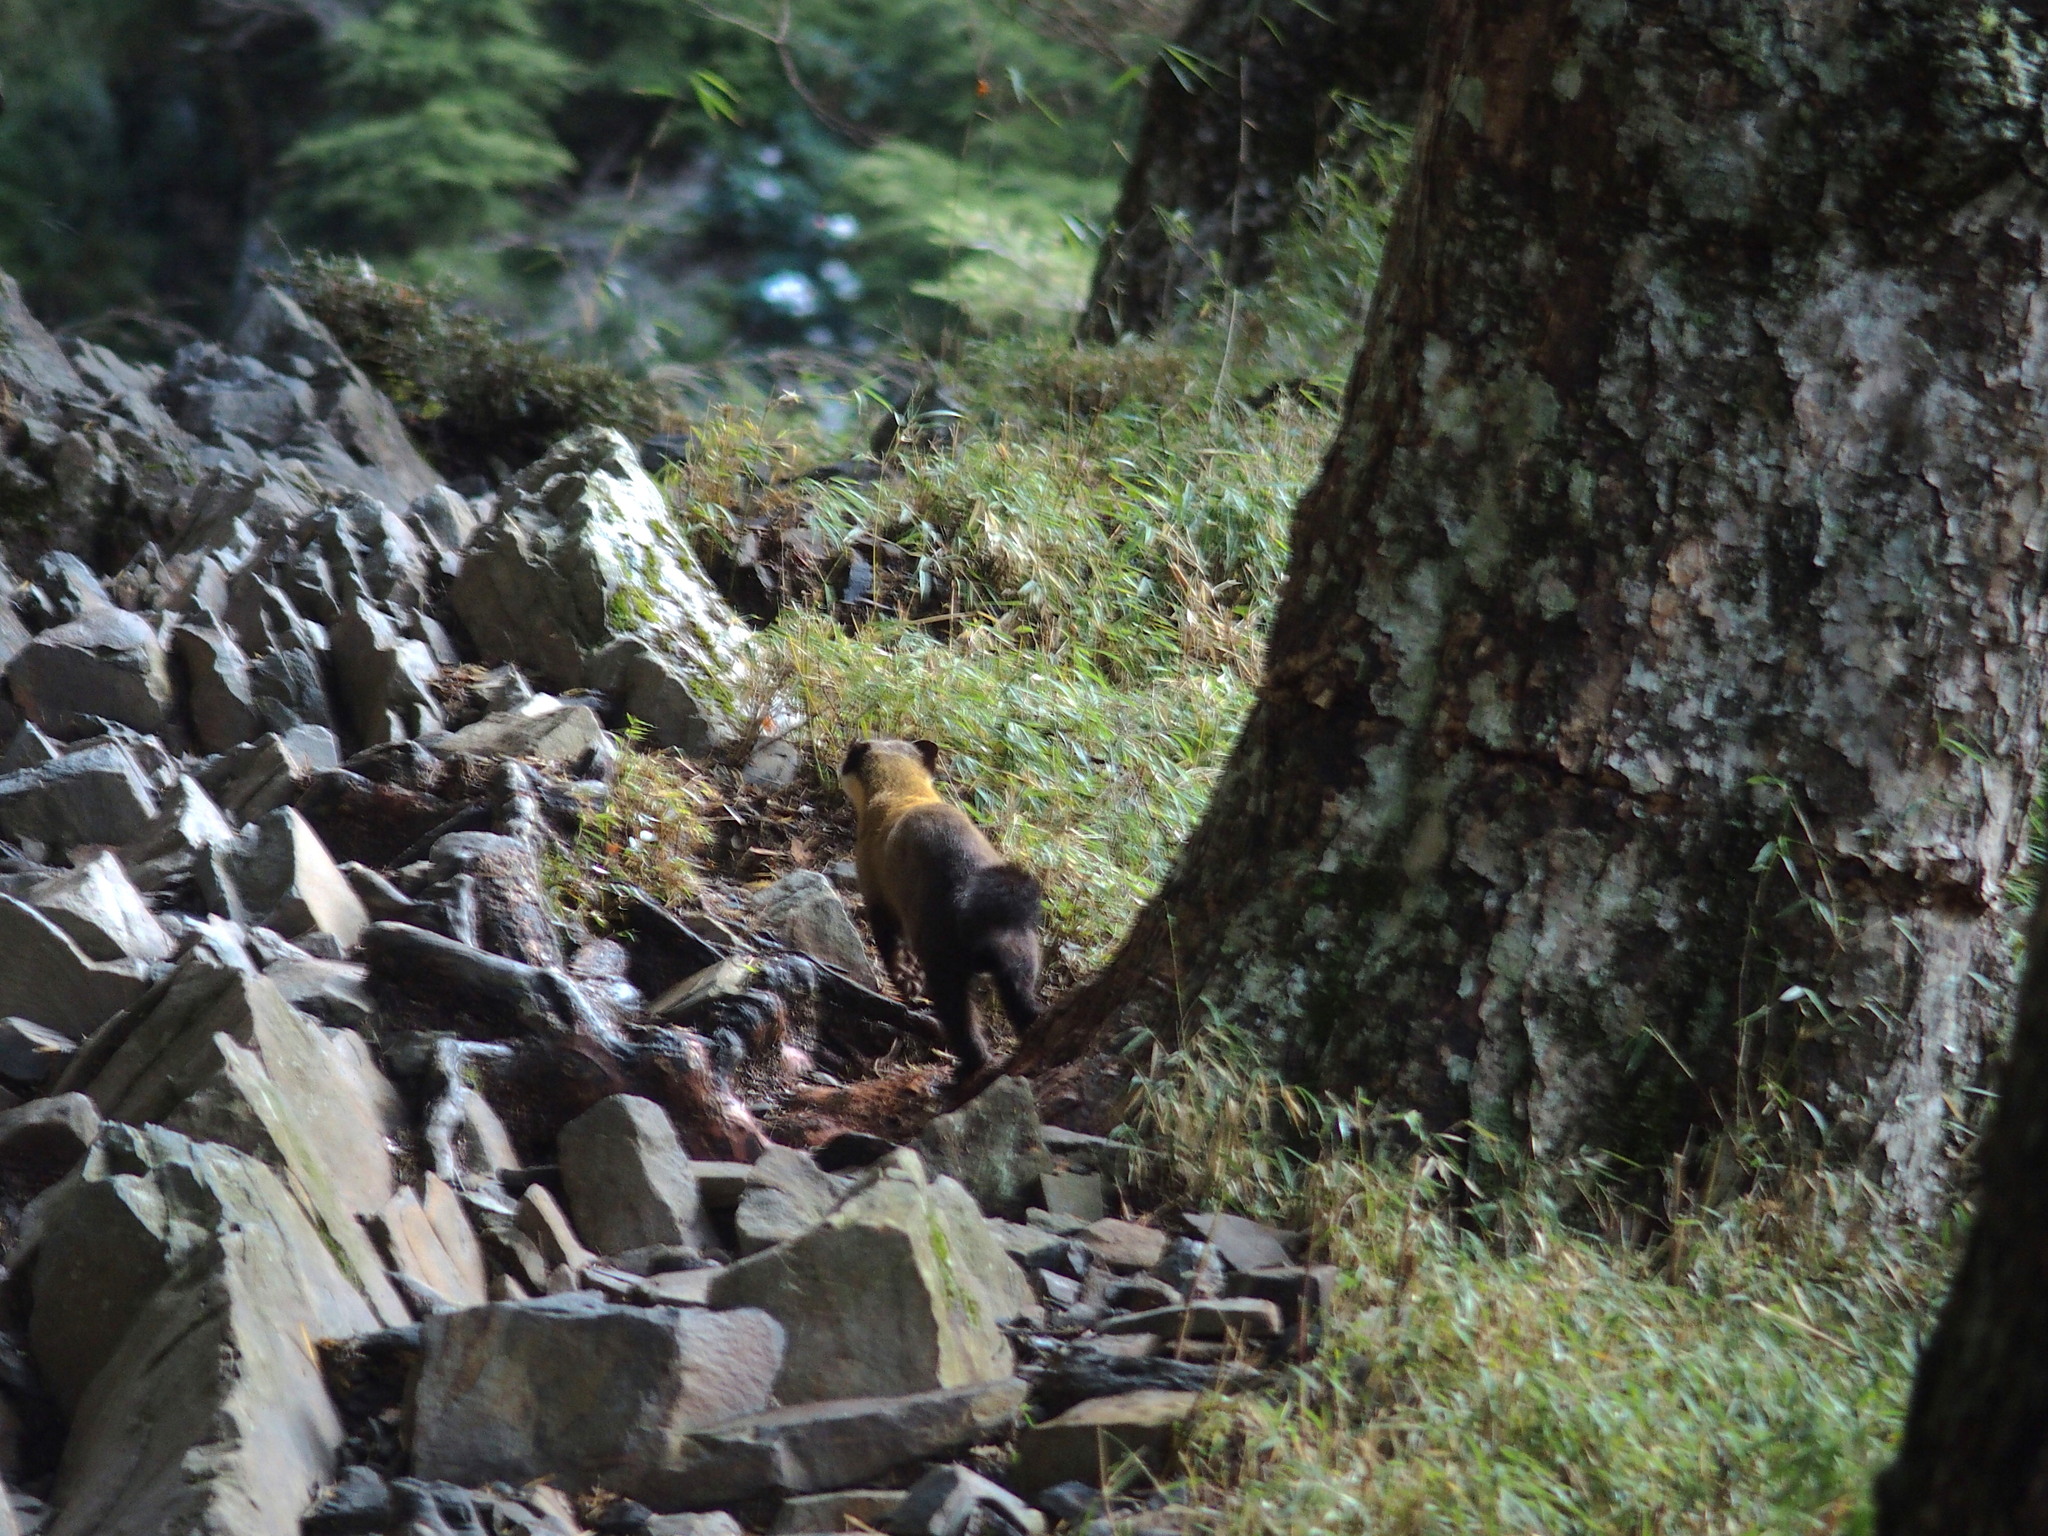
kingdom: Animalia
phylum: Chordata
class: Mammalia
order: Carnivora
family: Mustelidae
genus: Martes
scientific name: Martes flavigula
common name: Yellow-throated marten
